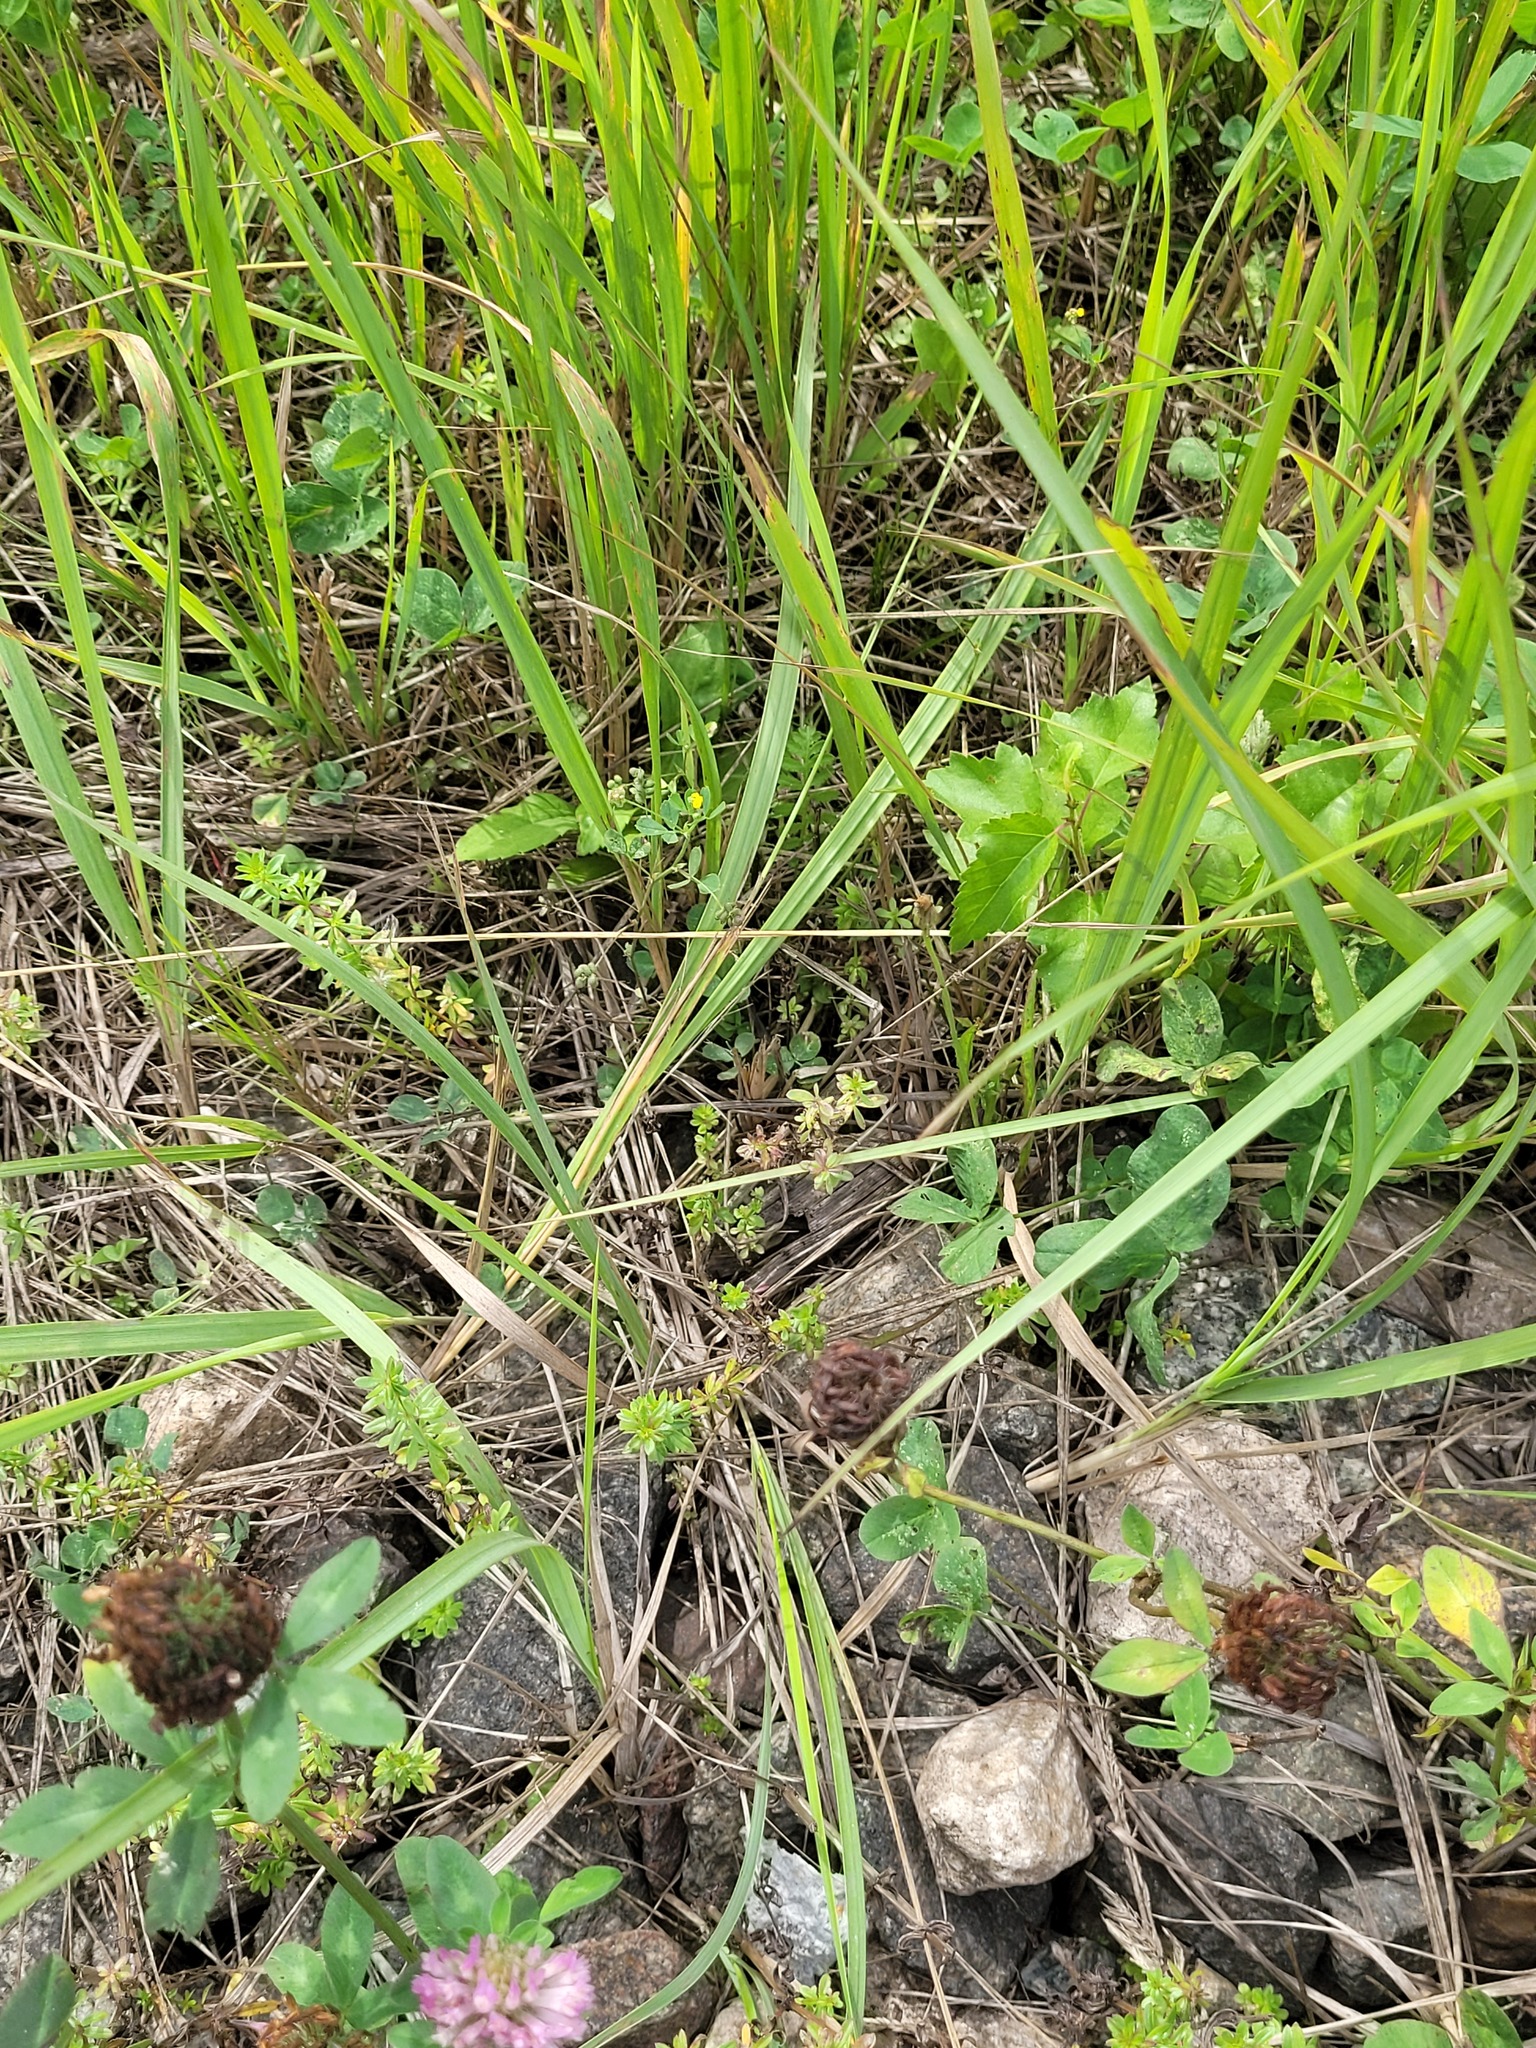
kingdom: Plantae
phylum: Tracheophyta
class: Magnoliopsida
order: Gentianales
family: Rubiaceae
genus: Galium
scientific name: Galium mollugo
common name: Hedge bedstraw
